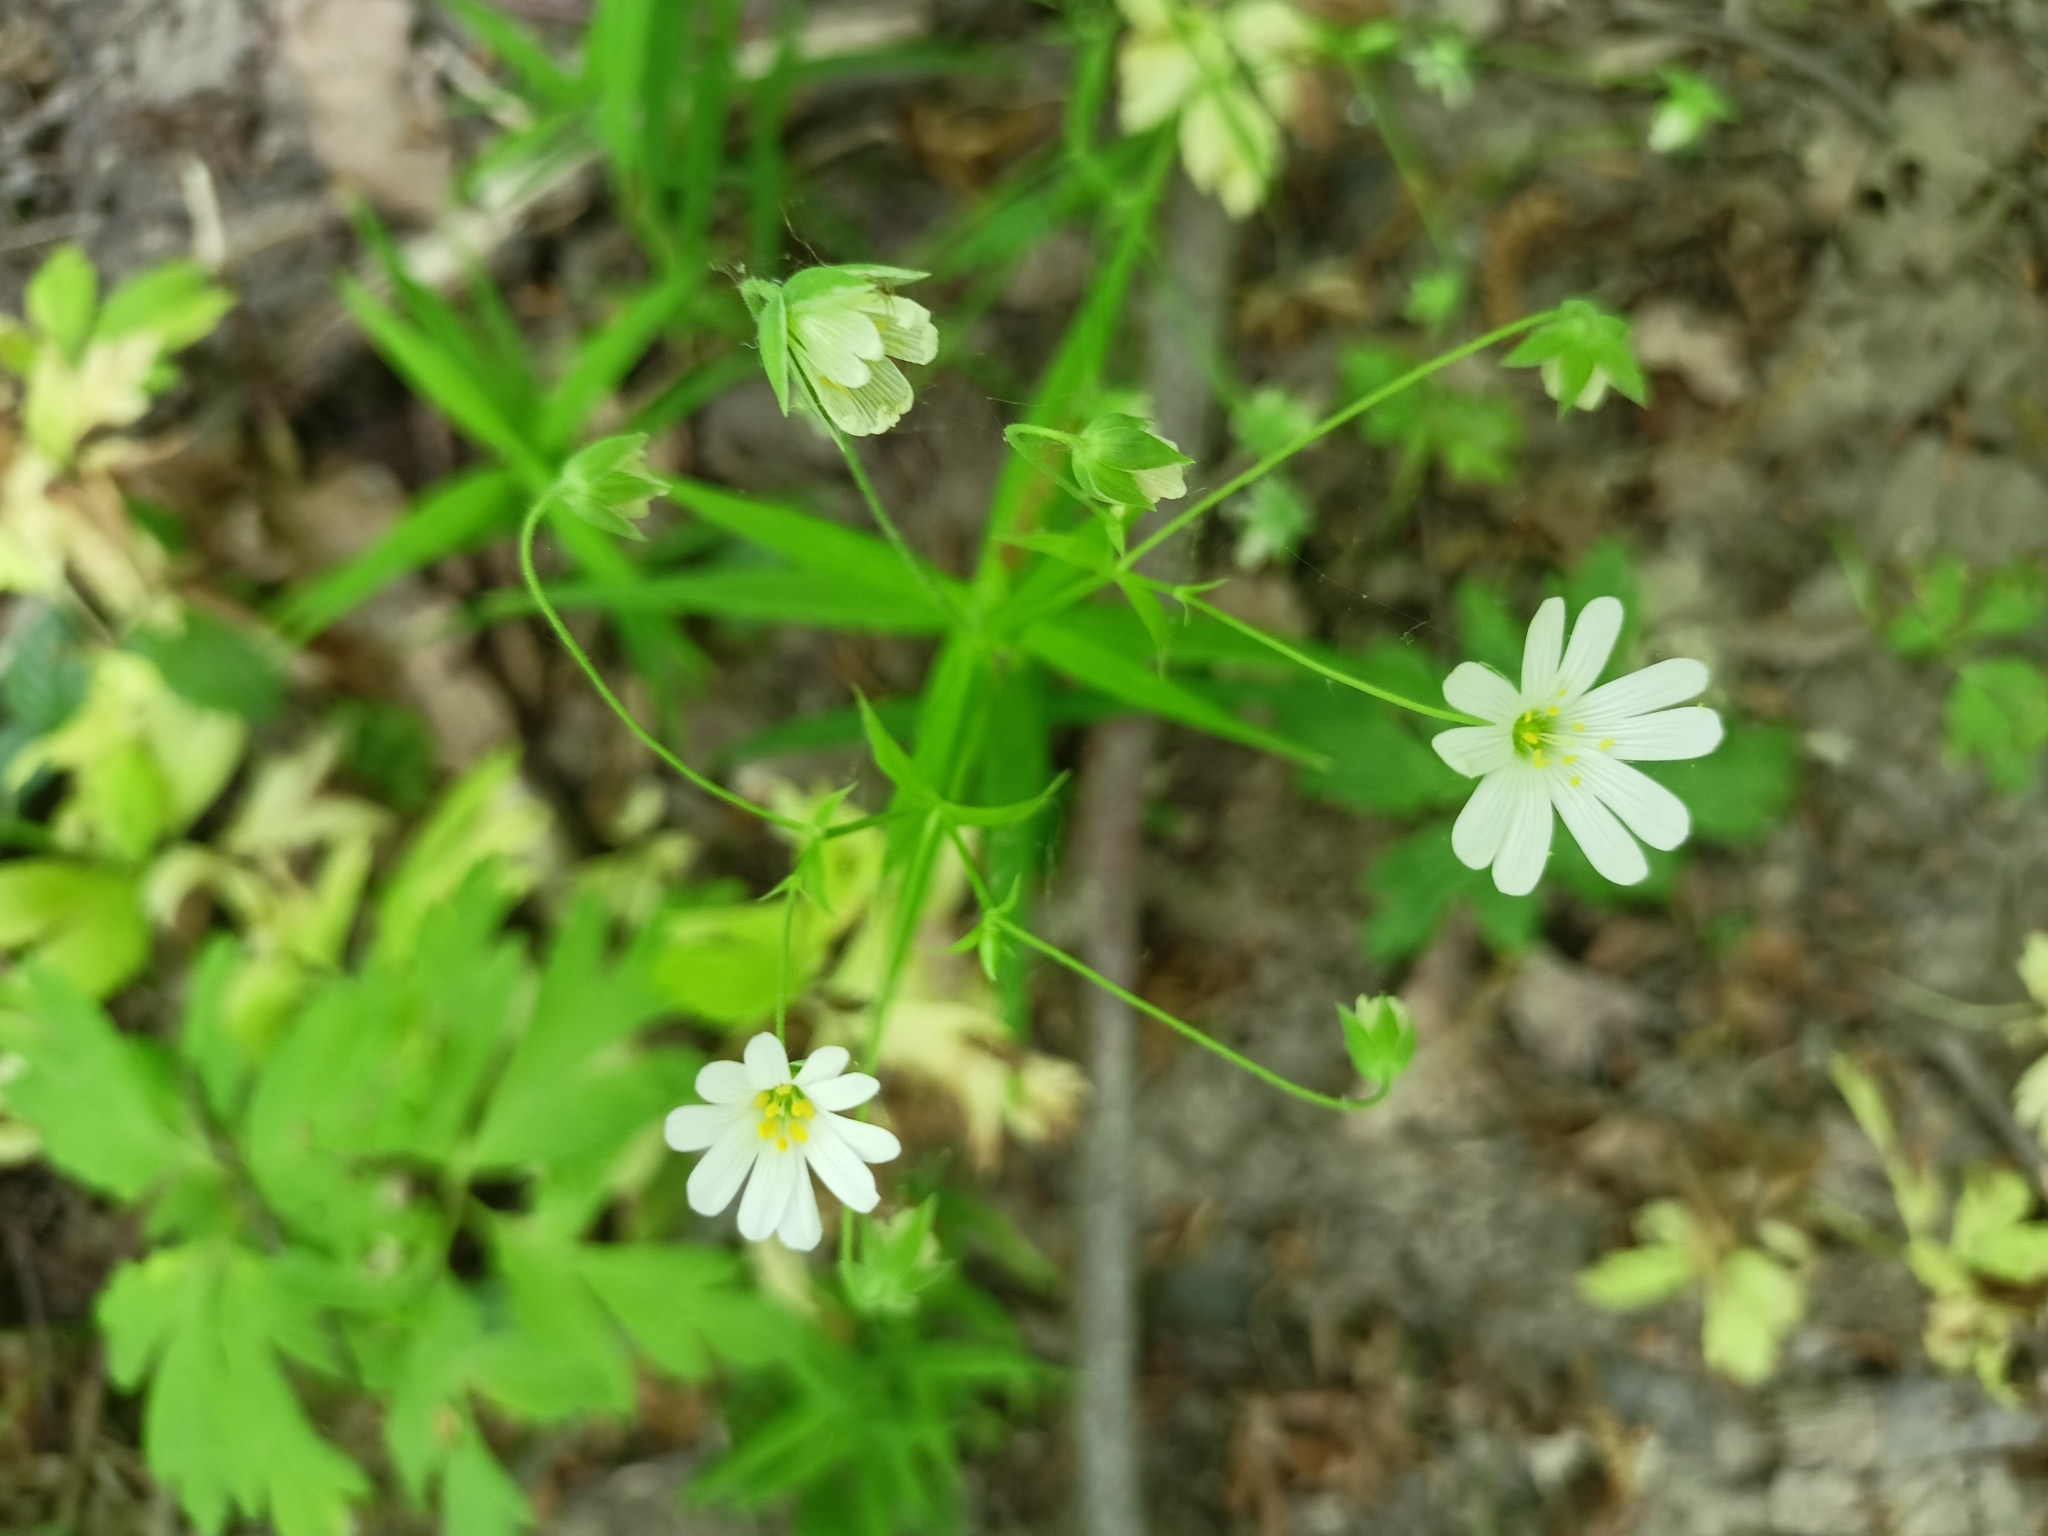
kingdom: Plantae
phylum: Tracheophyta
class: Magnoliopsida
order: Caryophyllales
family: Caryophyllaceae
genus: Rabelera
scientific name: Rabelera holostea
